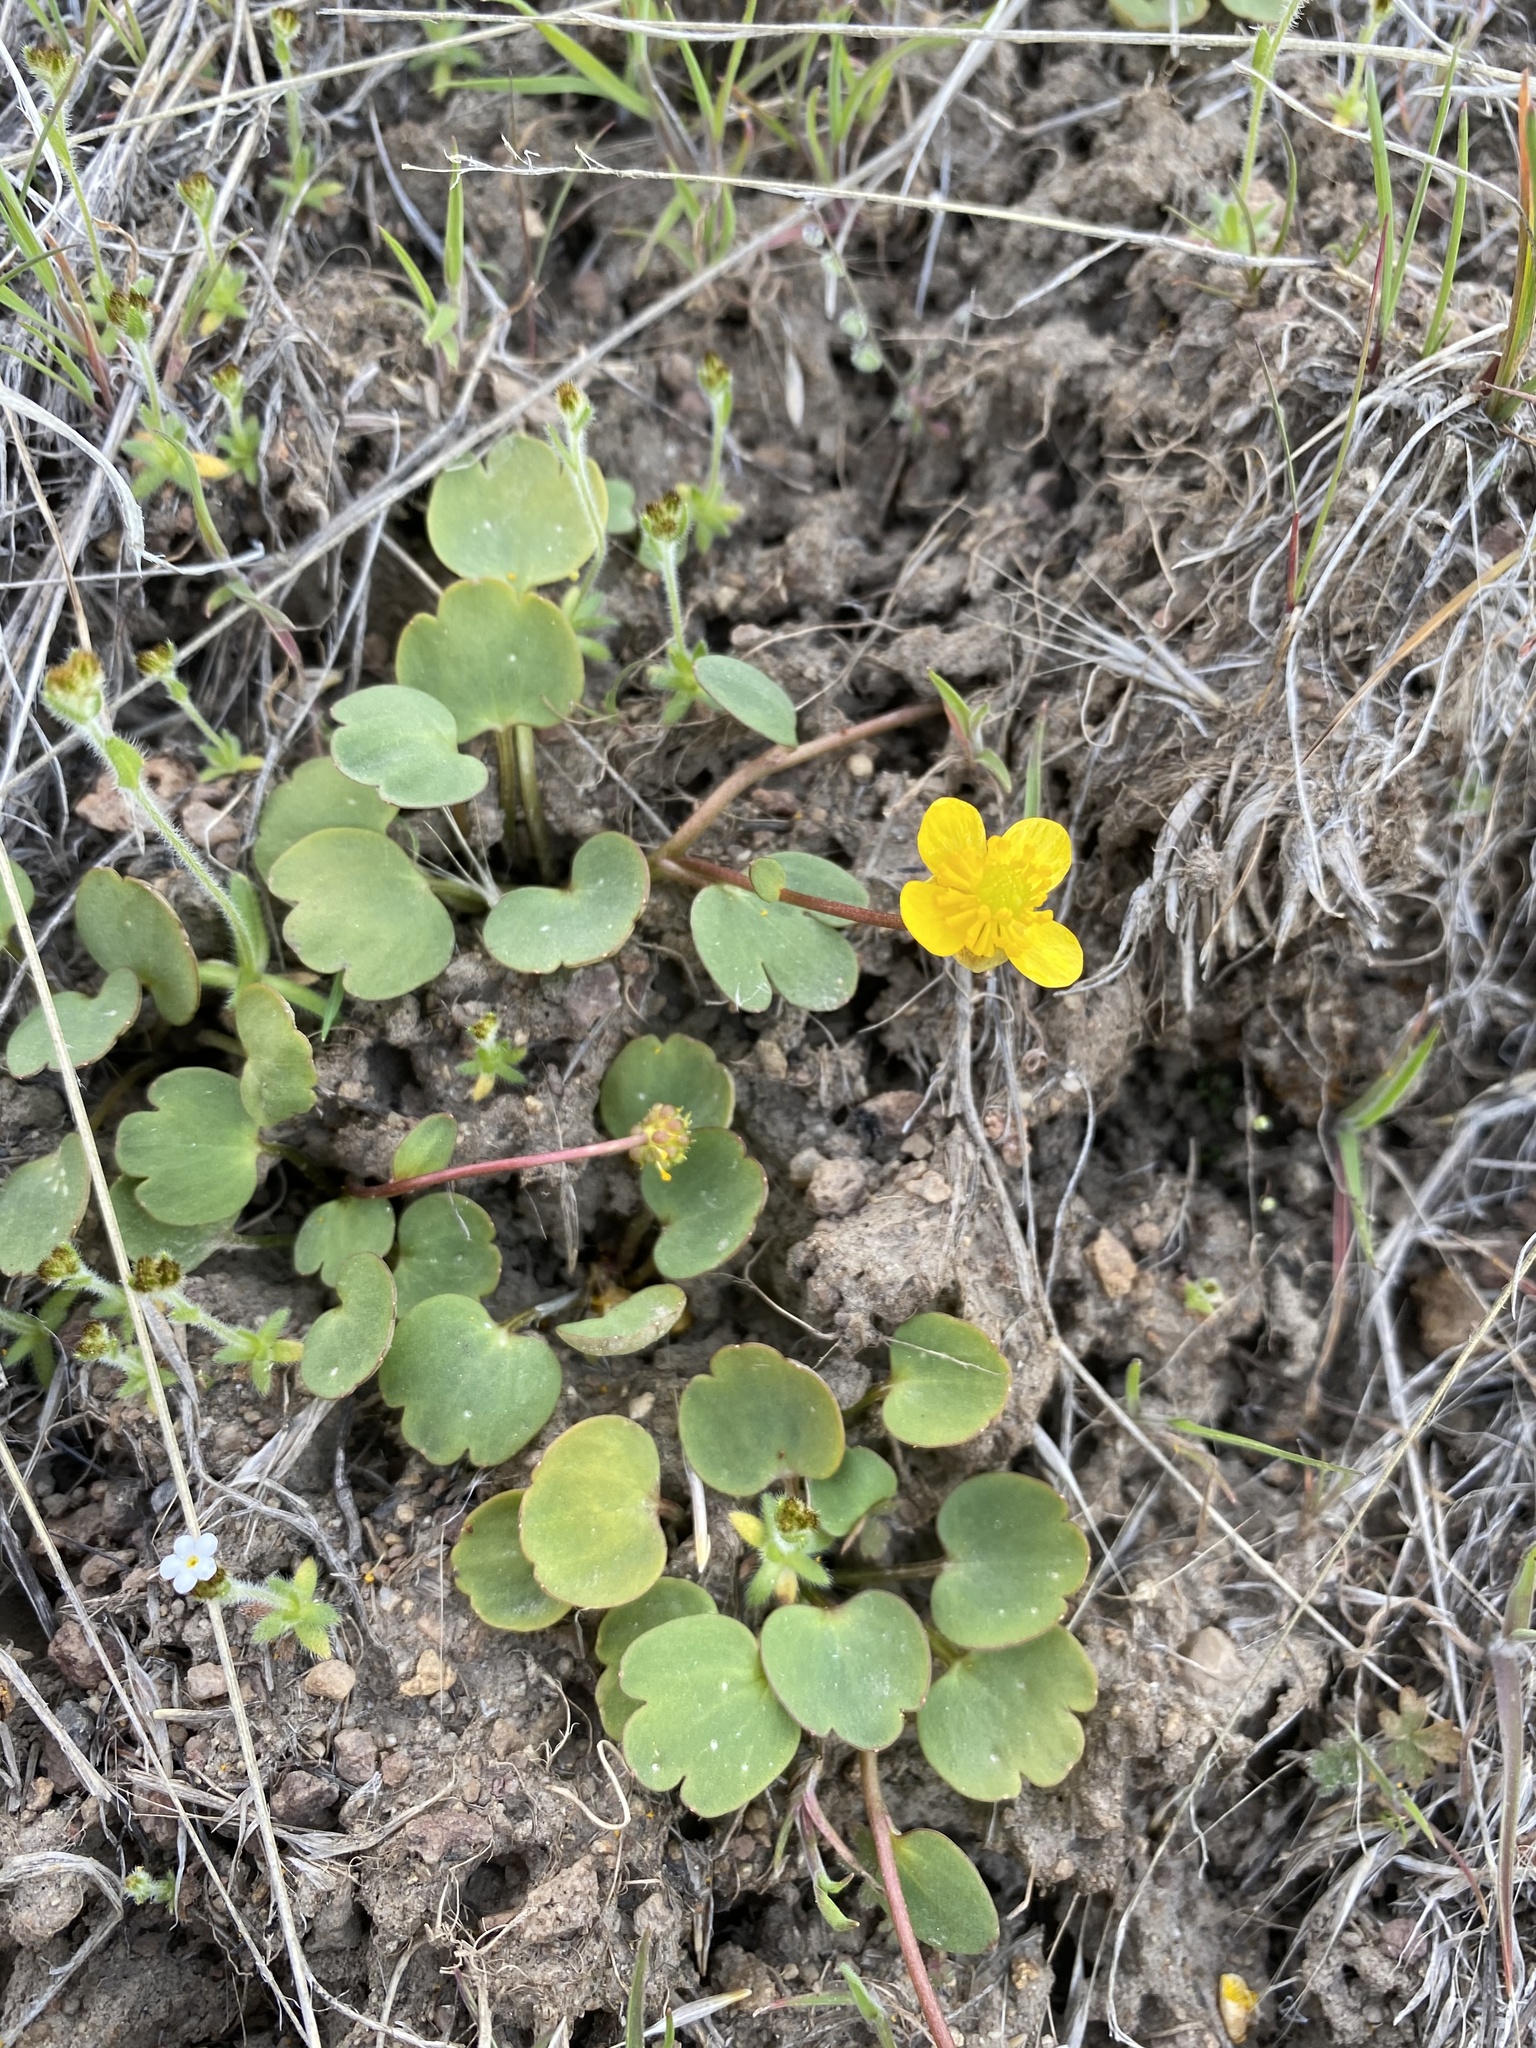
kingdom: Plantae
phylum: Tracheophyta
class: Magnoliopsida
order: Ranunculales
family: Ranunculaceae
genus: Ranunculus
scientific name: Ranunculus glaberrimus
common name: Sagebrush buttercup
